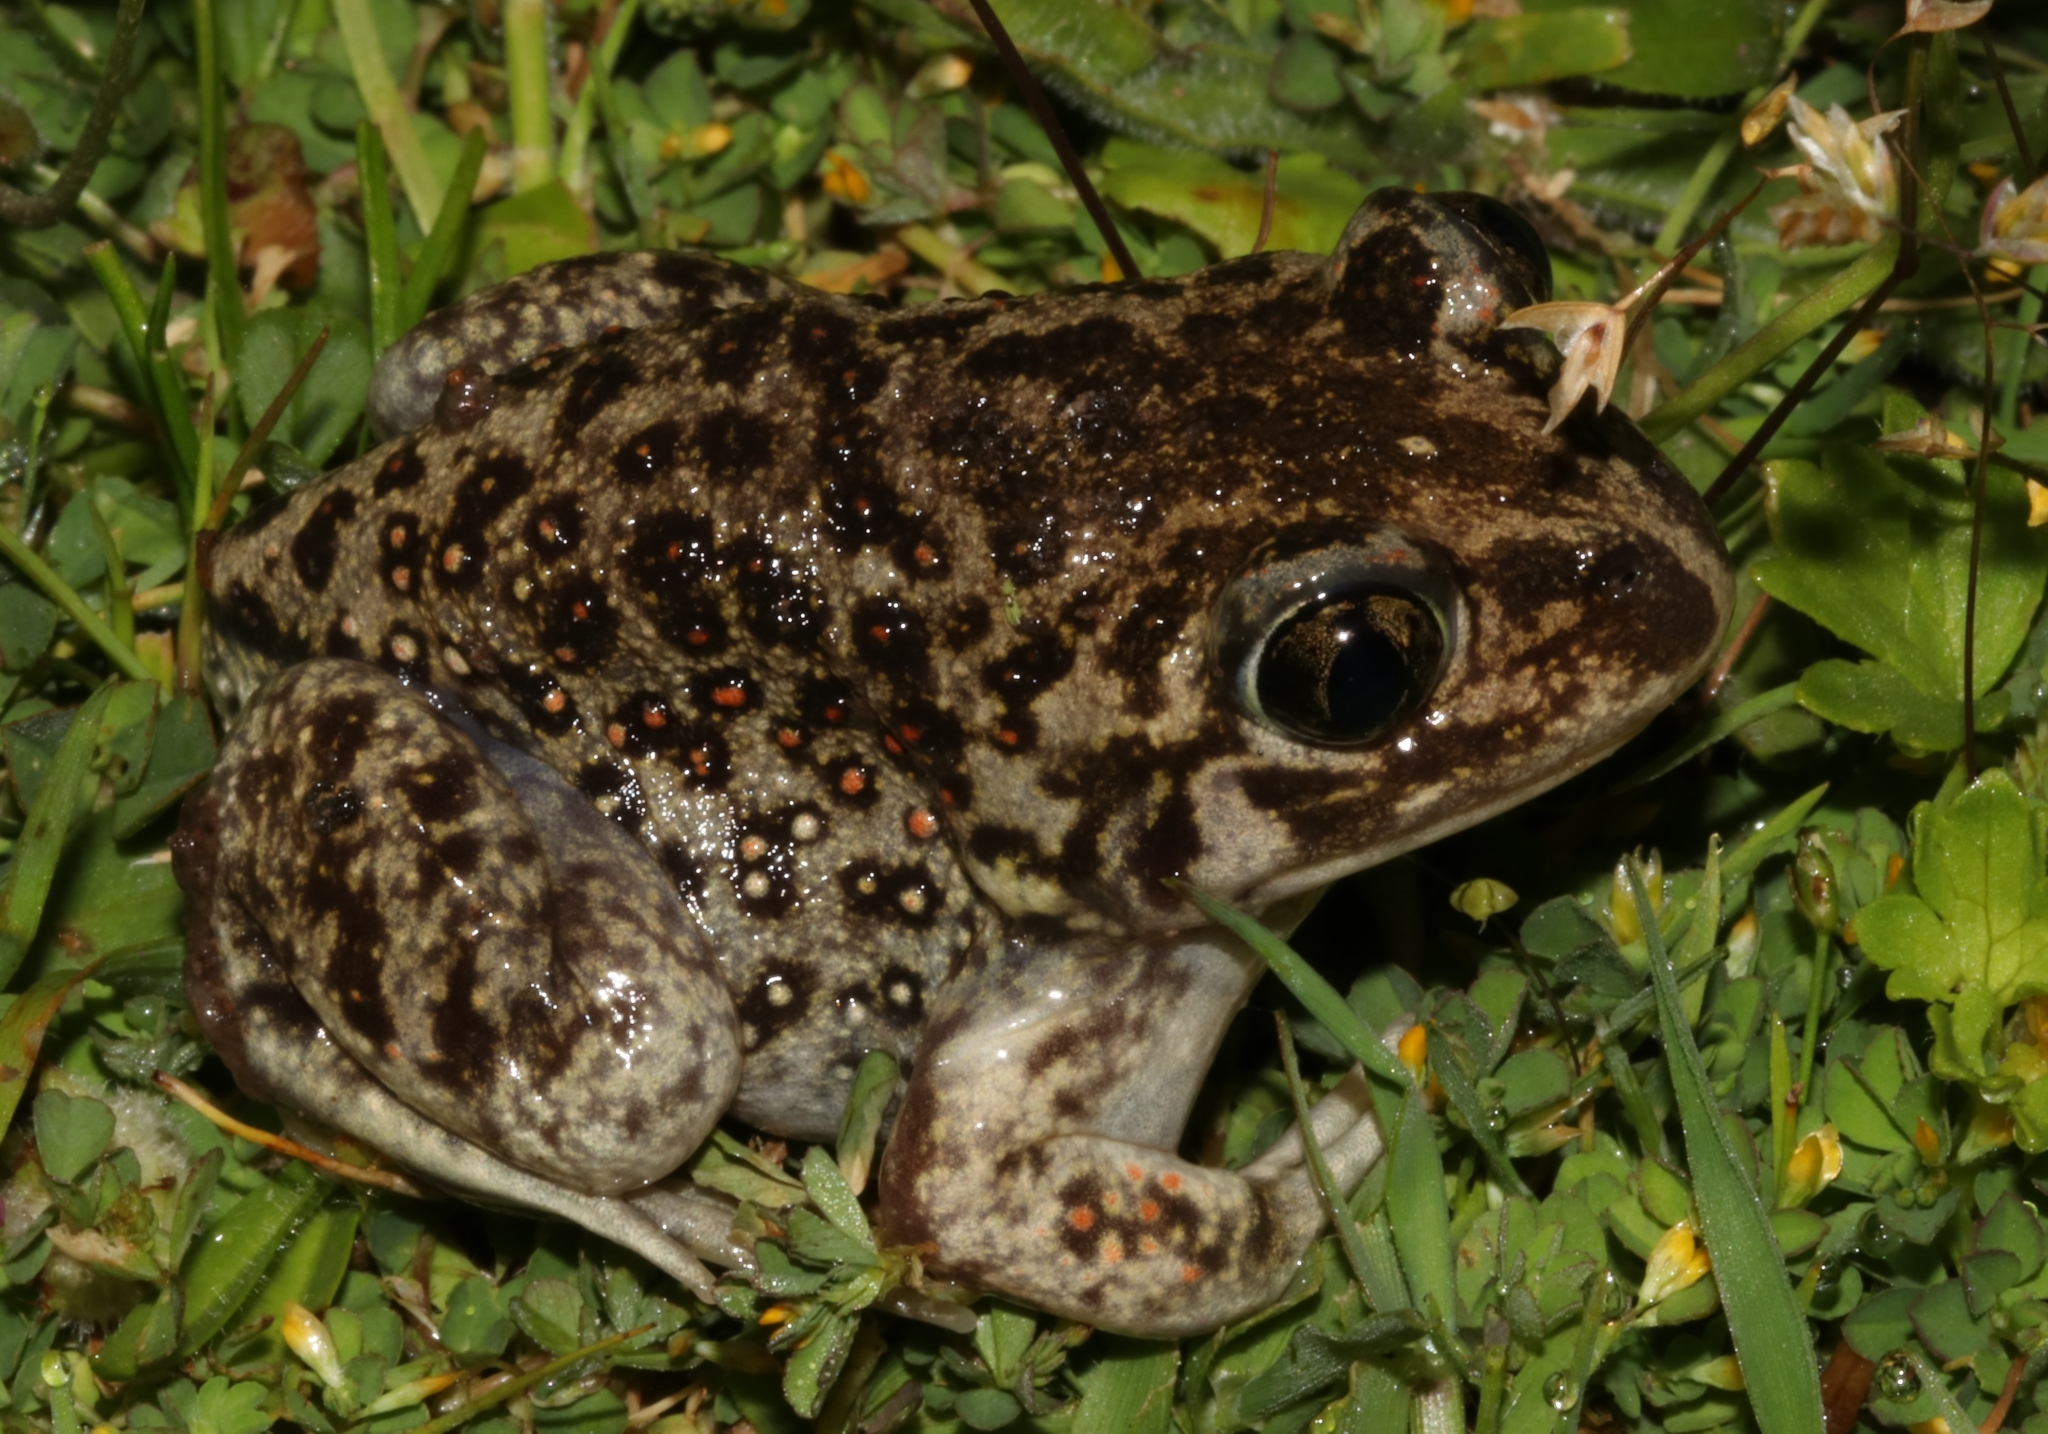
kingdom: Animalia
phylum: Chordata
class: Amphibia
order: Anura
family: Pelobatidae
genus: Pelobates
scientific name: Pelobates balcanicus
